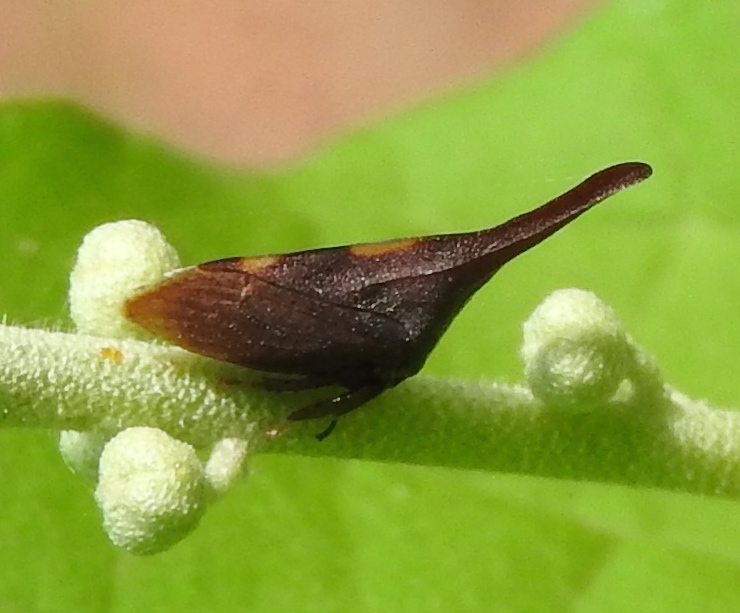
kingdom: Animalia
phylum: Arthropoda
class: Insecta
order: Hemiptera
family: Membracidae
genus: Enchenopa
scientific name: Enchenopa
